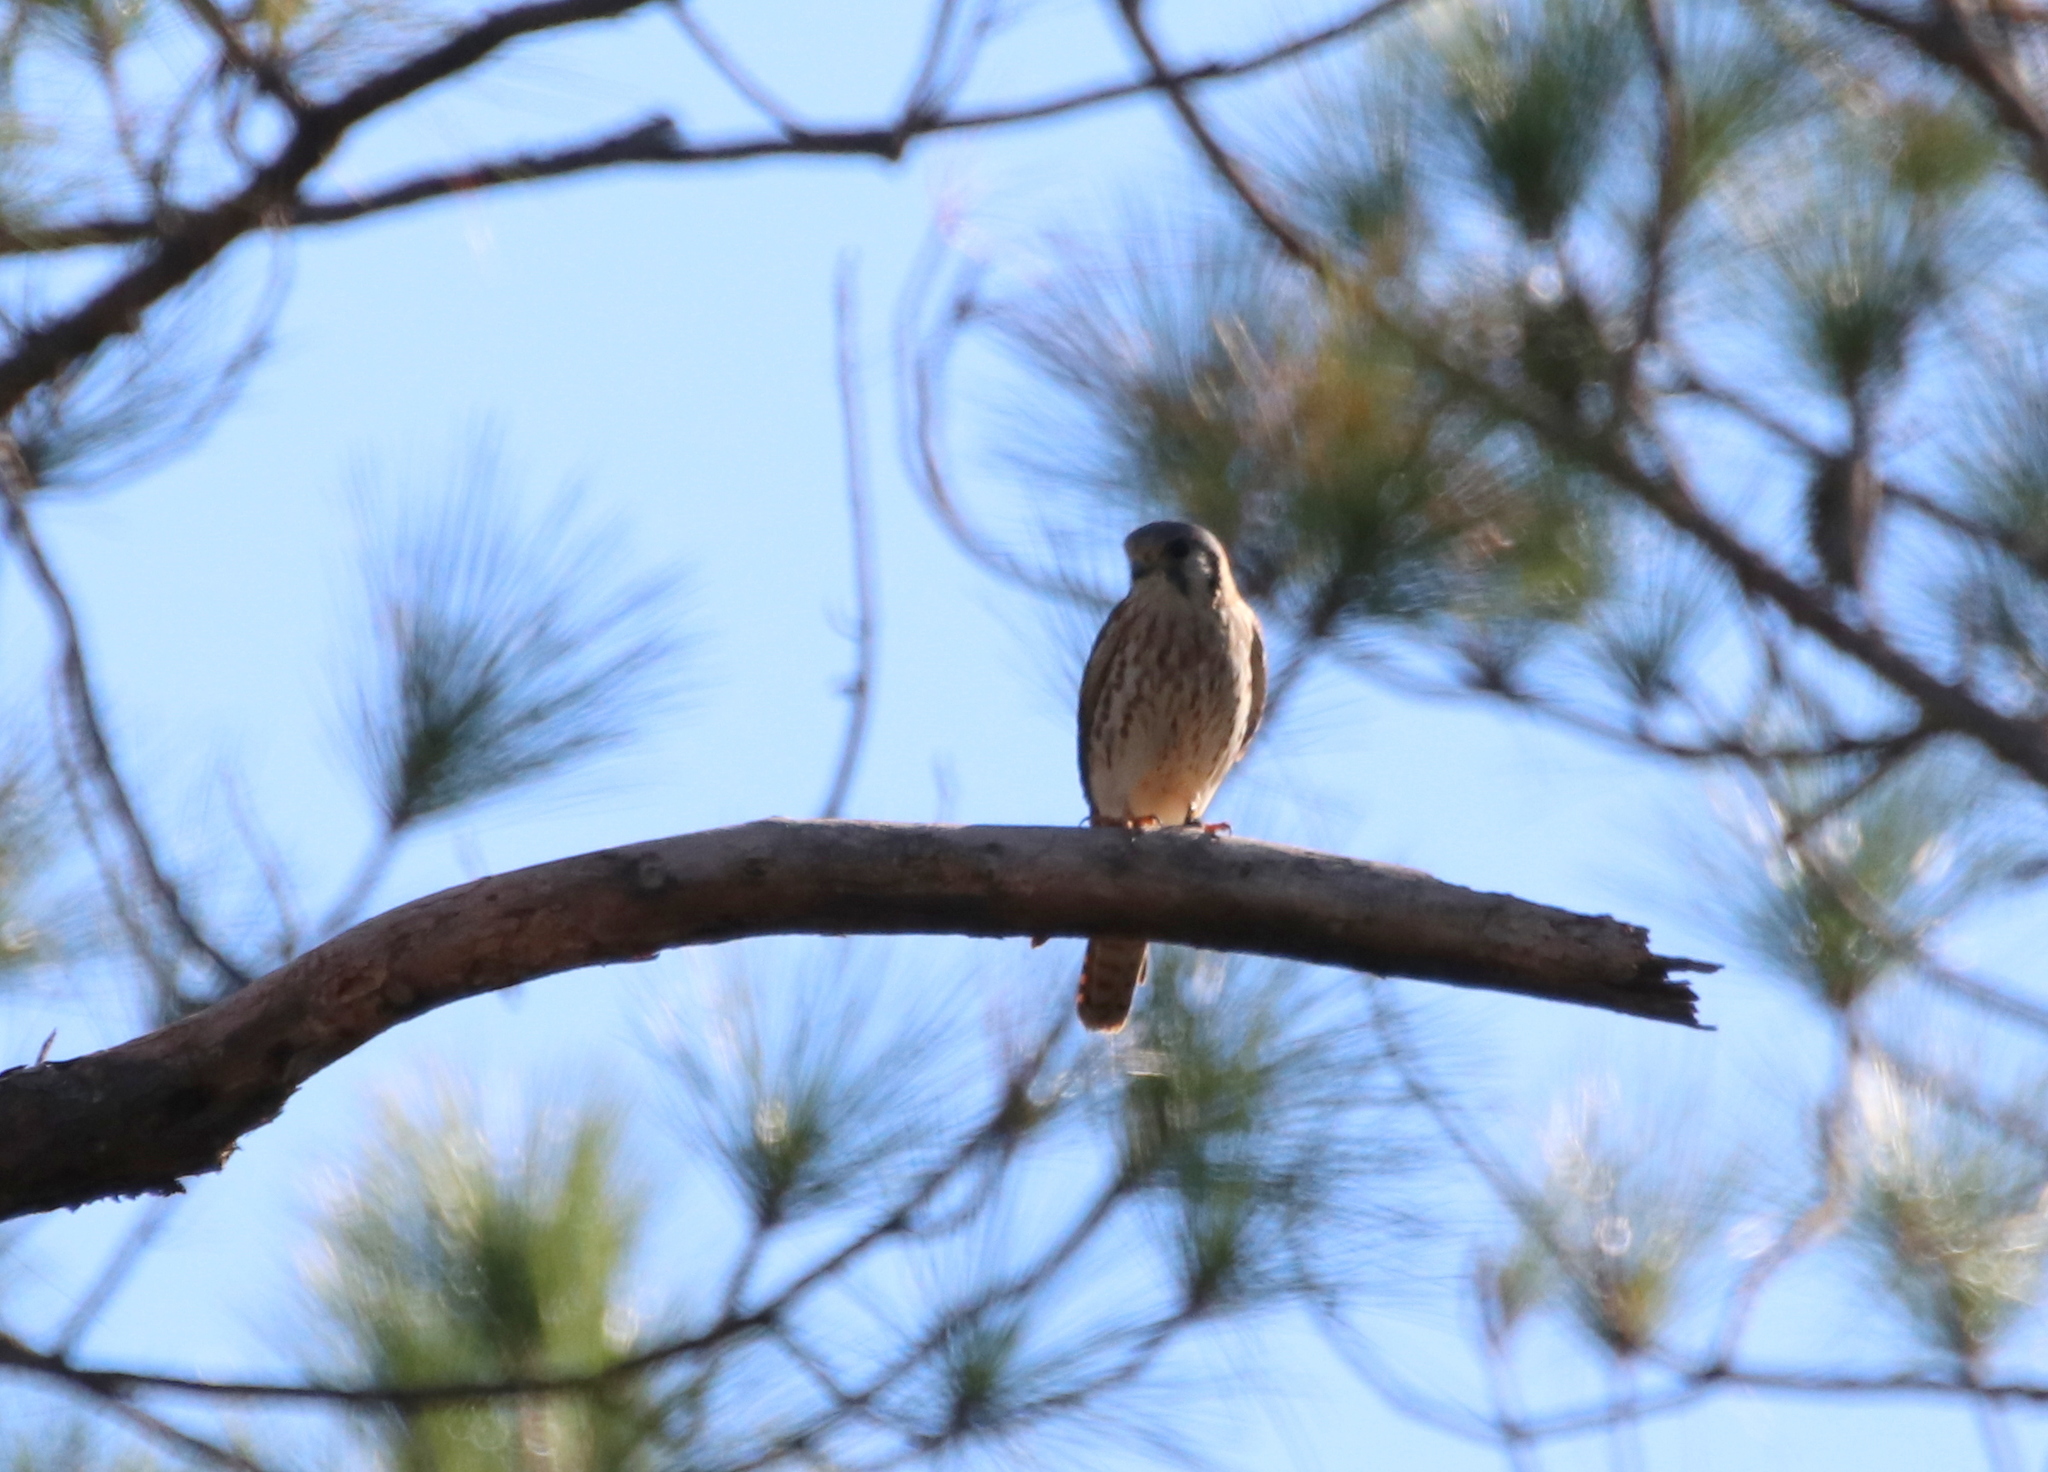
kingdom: Animalia
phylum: Chordata
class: Aves
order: Falconiformes
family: Falconidae
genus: Falco
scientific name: Falco sparverius
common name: American kestrel
